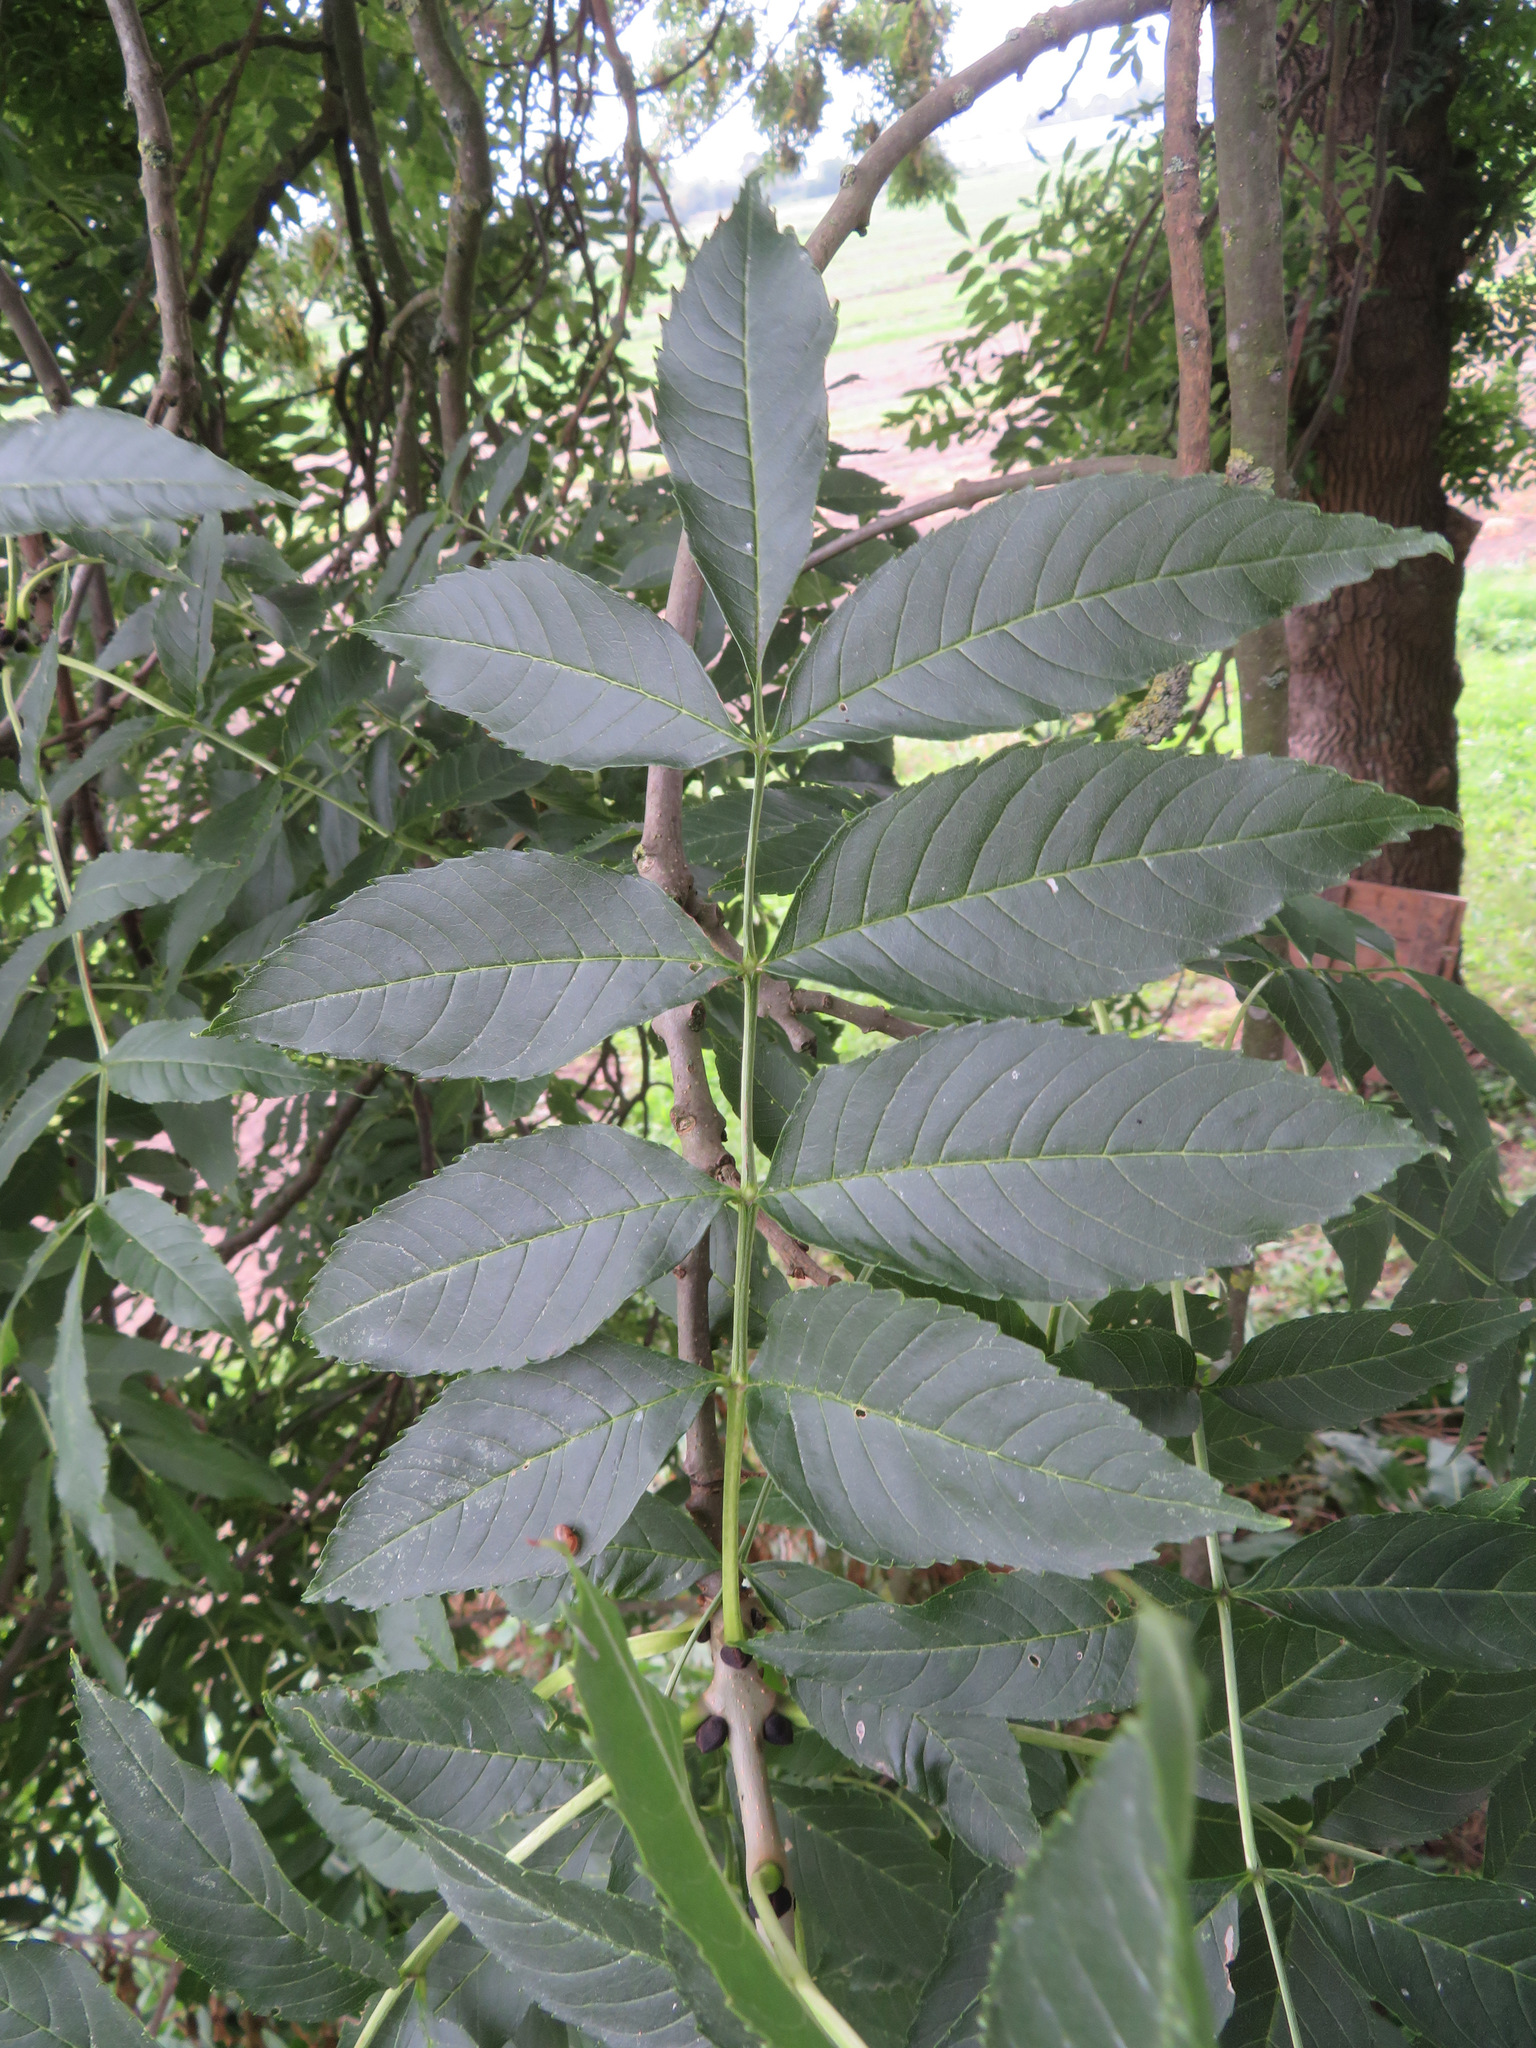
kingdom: Plantae
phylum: Tracheophyta
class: Magnoliopsida
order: Lamiales
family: Oleaceae
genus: Fraxinus
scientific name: Fraxinus excelsior
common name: European ash
